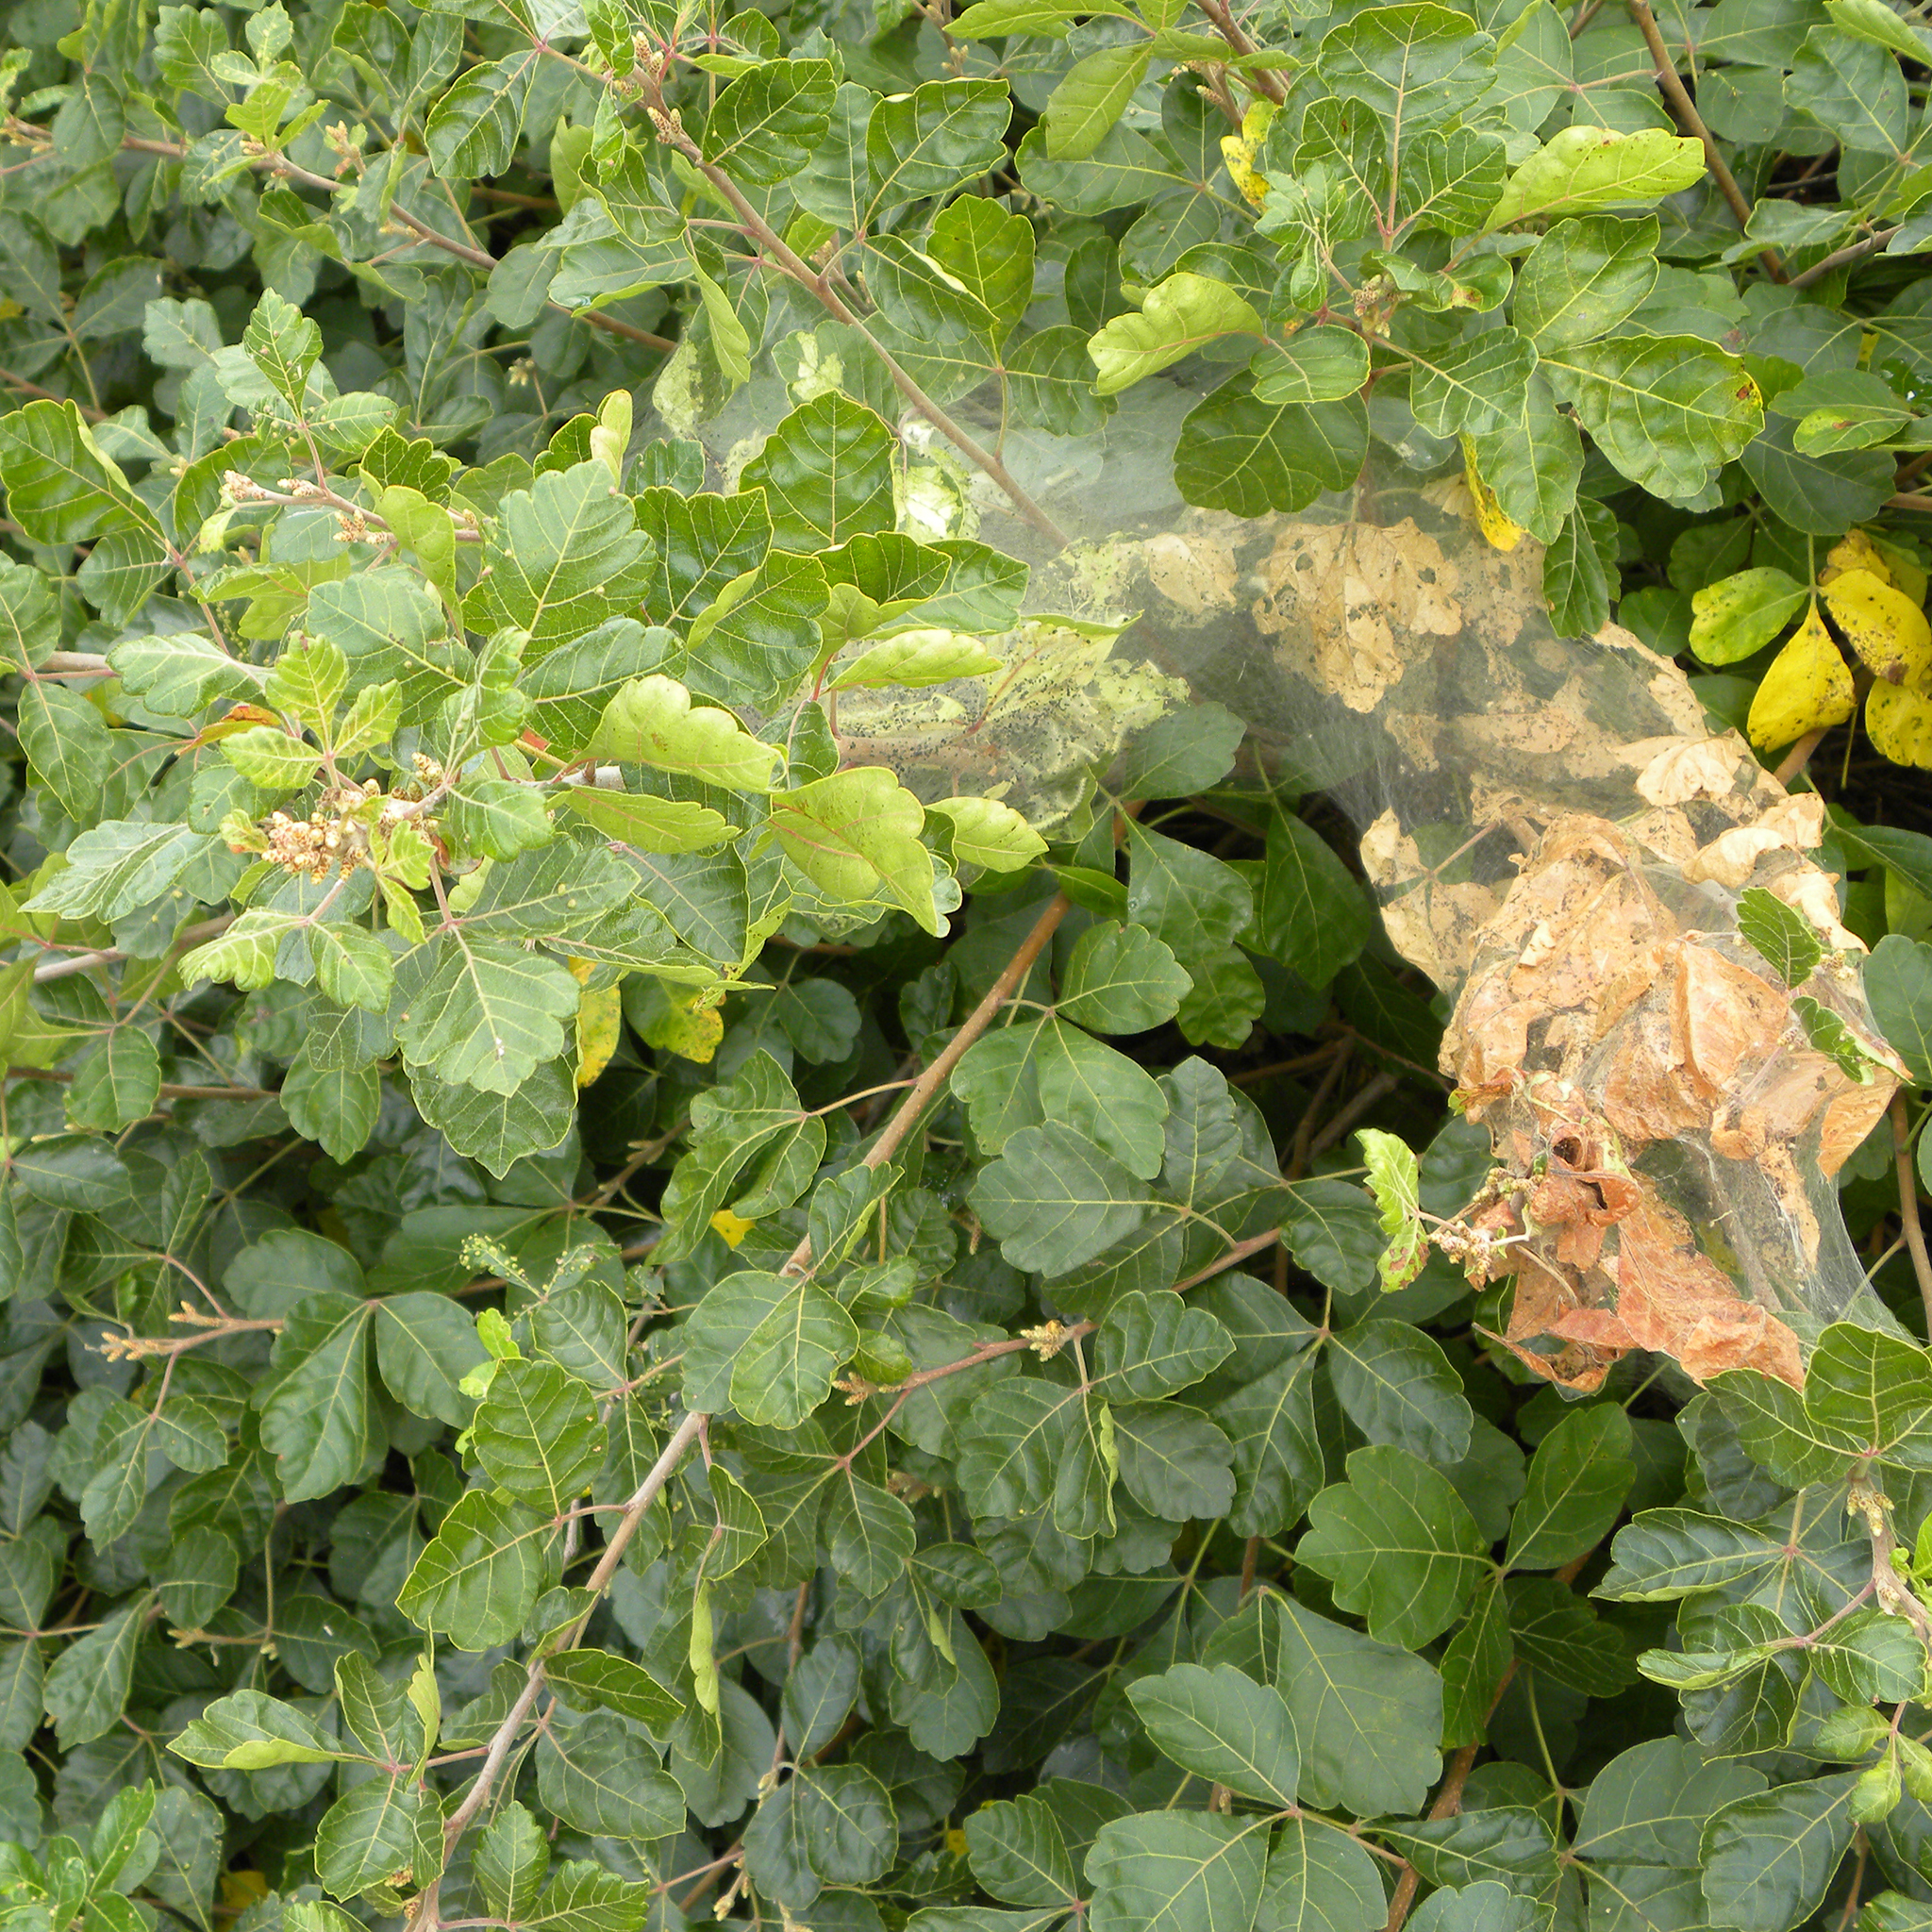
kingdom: Animalia
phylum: Arthropoda
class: Insecta
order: Lepidoptera
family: Erebidae
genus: Hyphantria
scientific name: Hyphantria cunea
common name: American white moth
